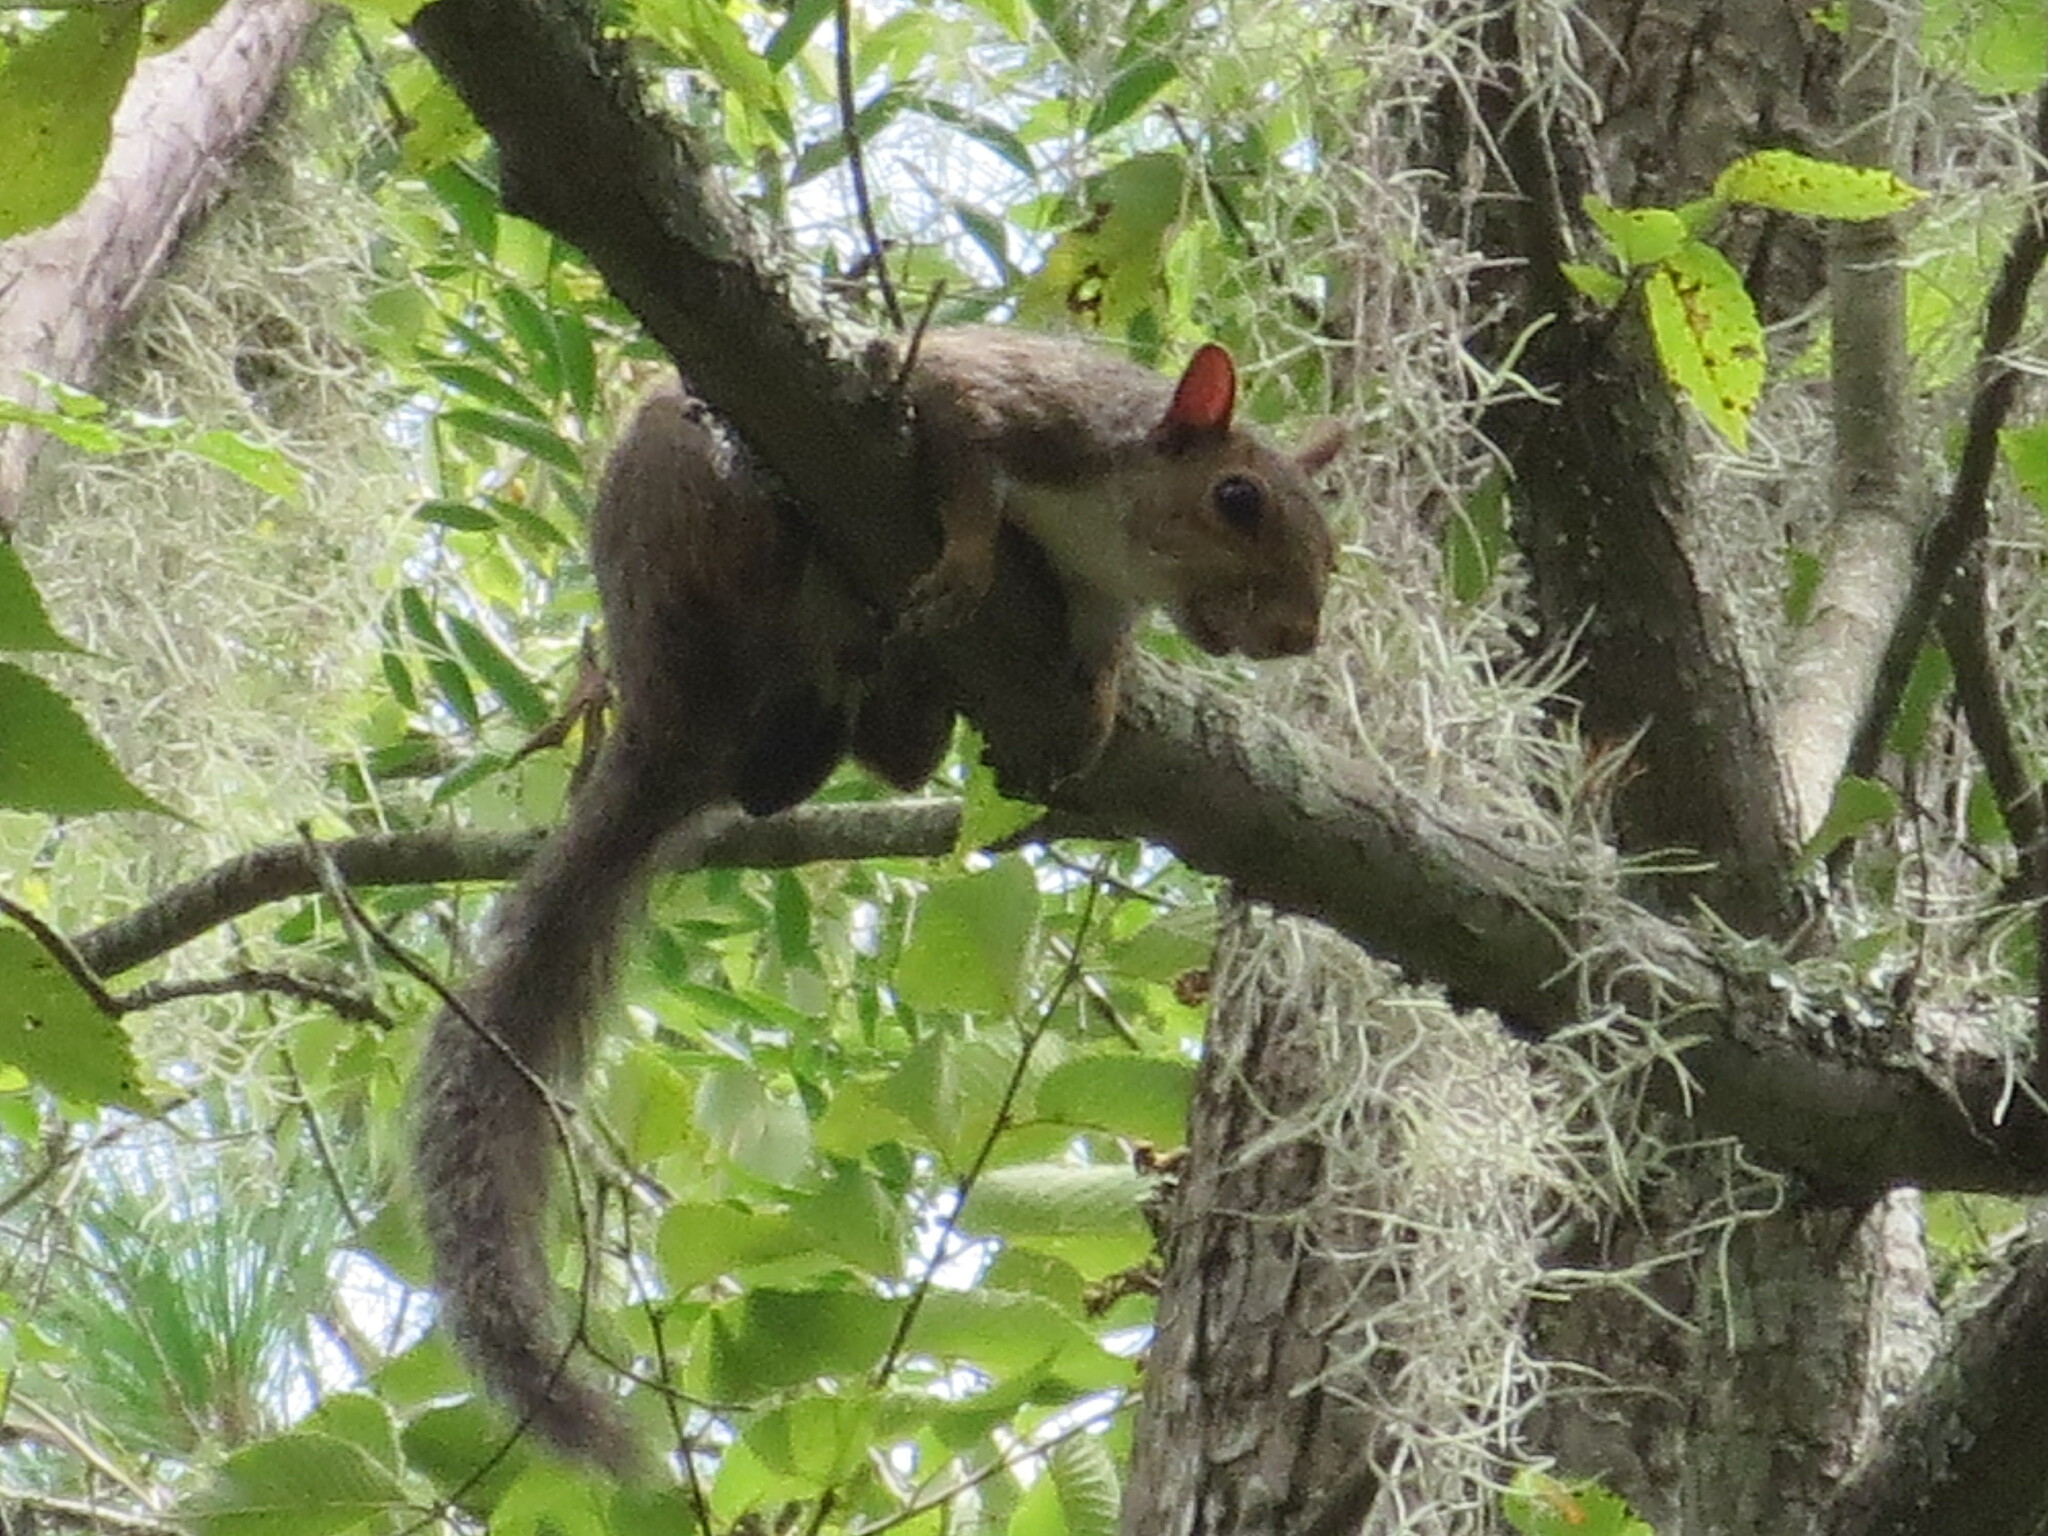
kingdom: Animalia
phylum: Chordata
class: Mammalia
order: Rodentia
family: Sciuridae
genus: Sciurus
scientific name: Sciurus carolinensis
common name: Eastern gray squirrel
